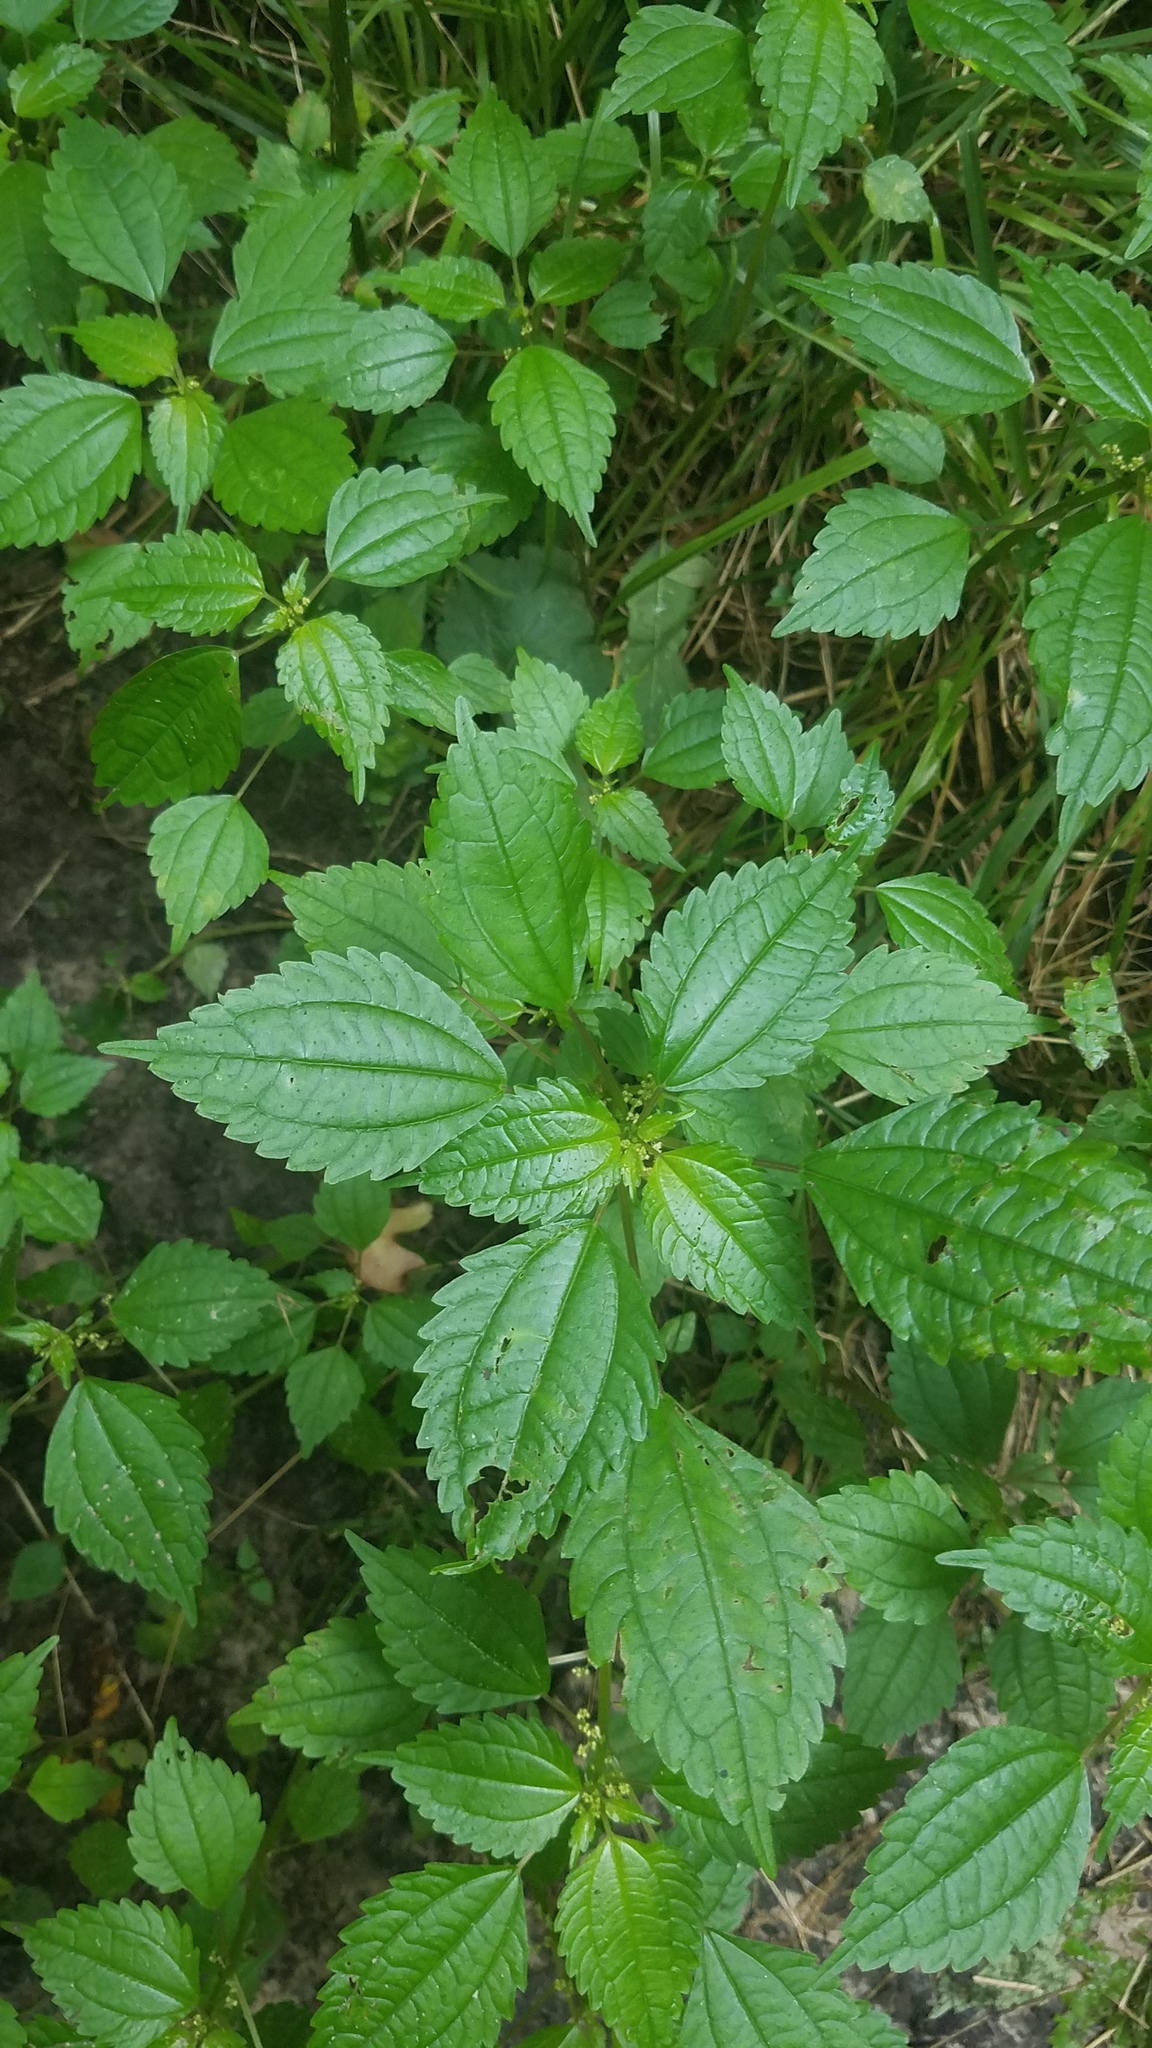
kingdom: Plantae
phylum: Tracheophyta
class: Magnoliopsida
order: Rosales
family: Urticaceae
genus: Pilea
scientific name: Pilea pumila
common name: Clearweed
